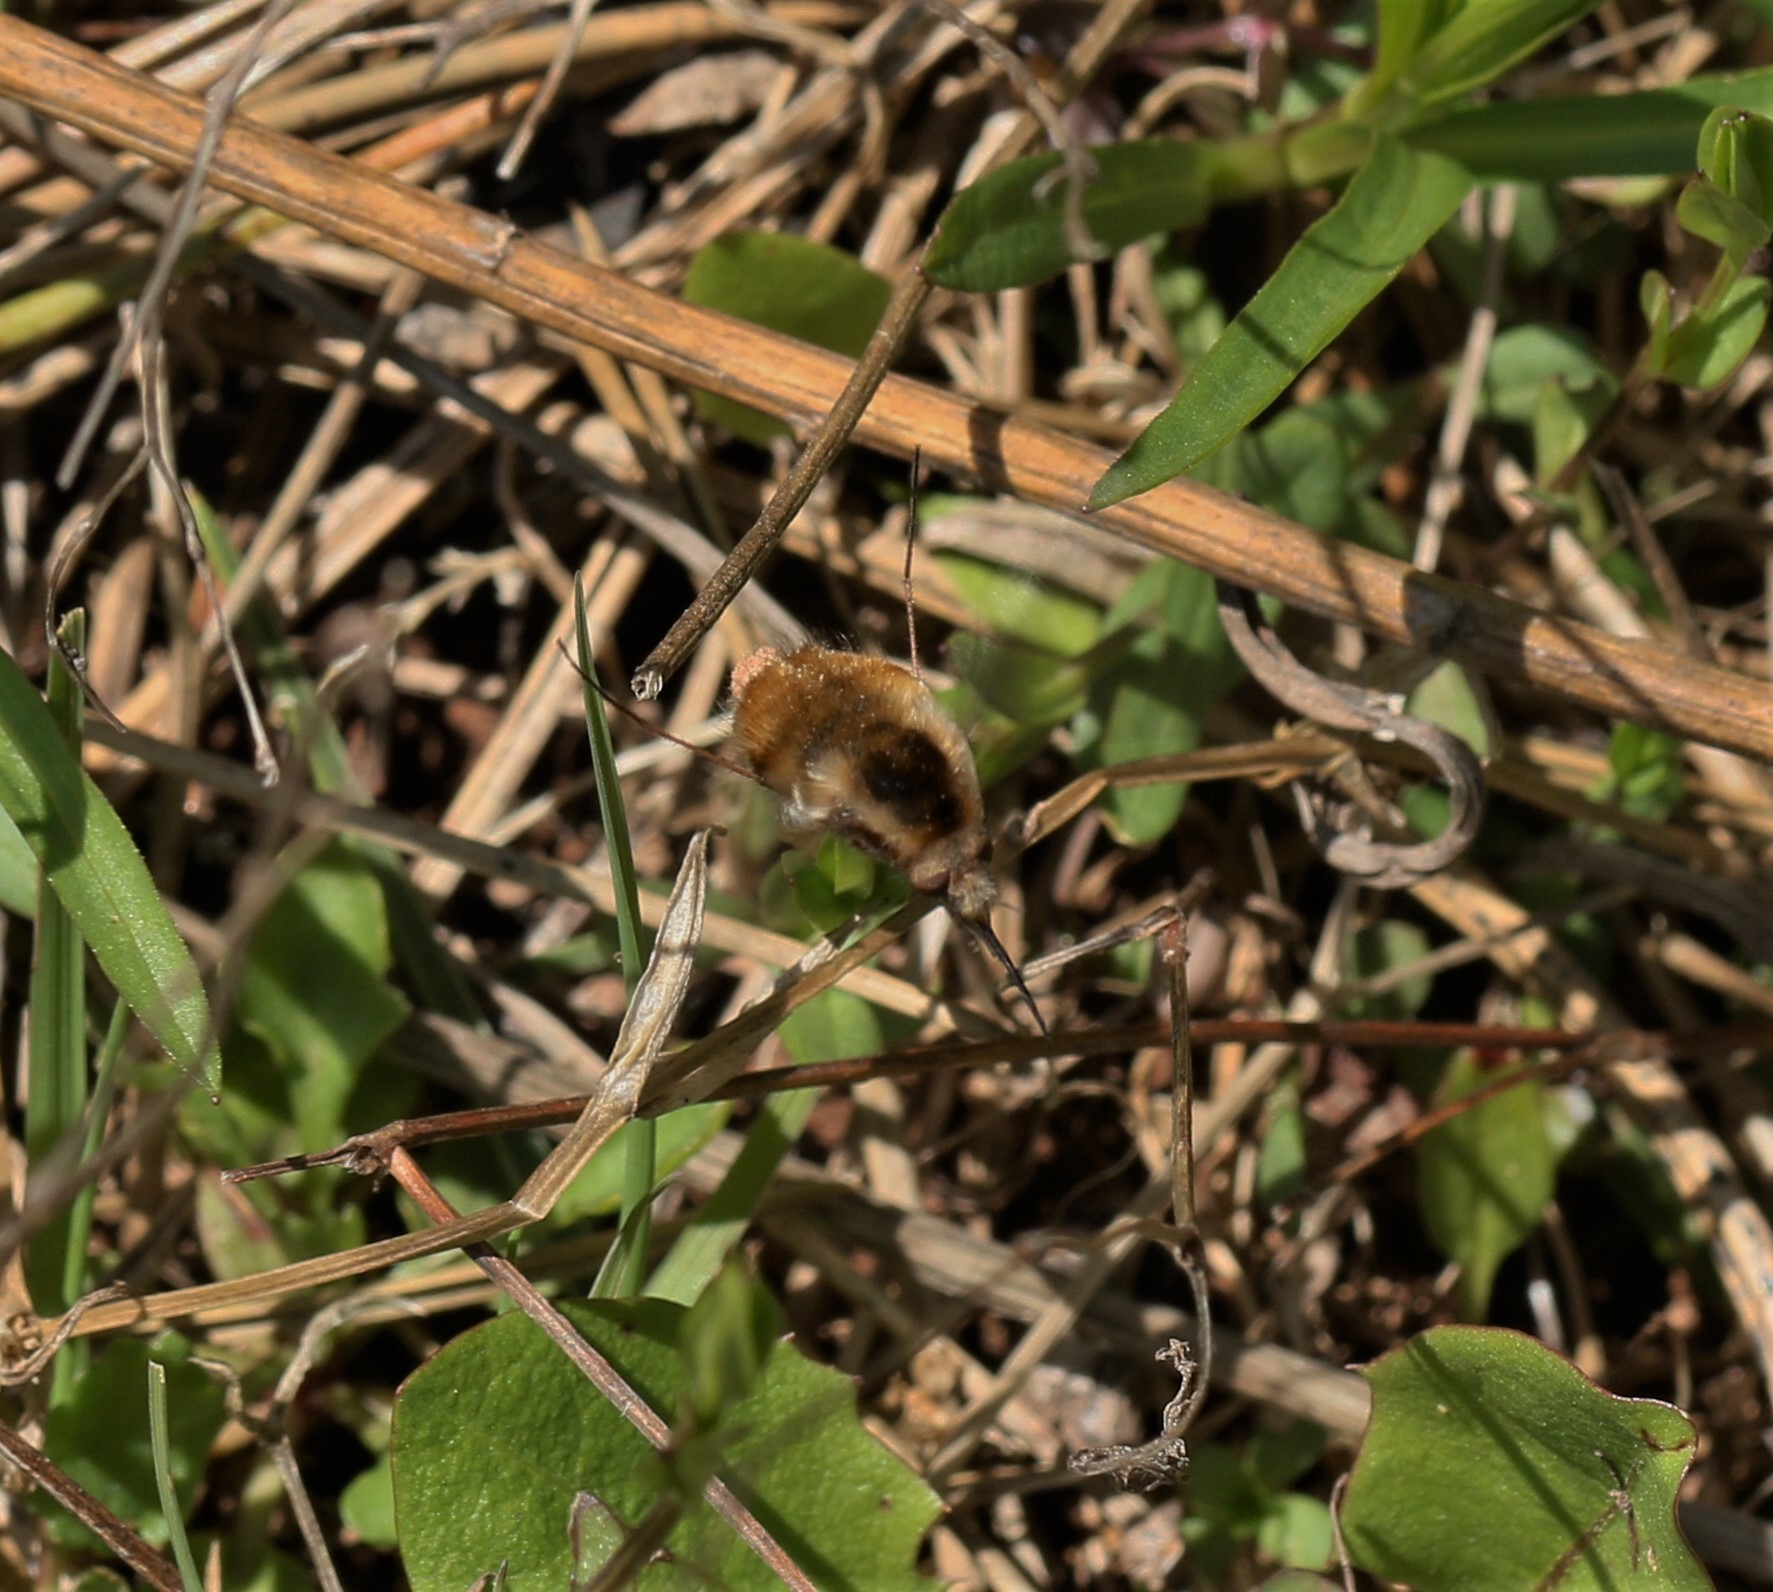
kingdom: Animalia
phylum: Arthropoda
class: Insecta
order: Diptera
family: Bombyliidae
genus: Bombylius
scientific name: Bombylius major
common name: Bee fly
